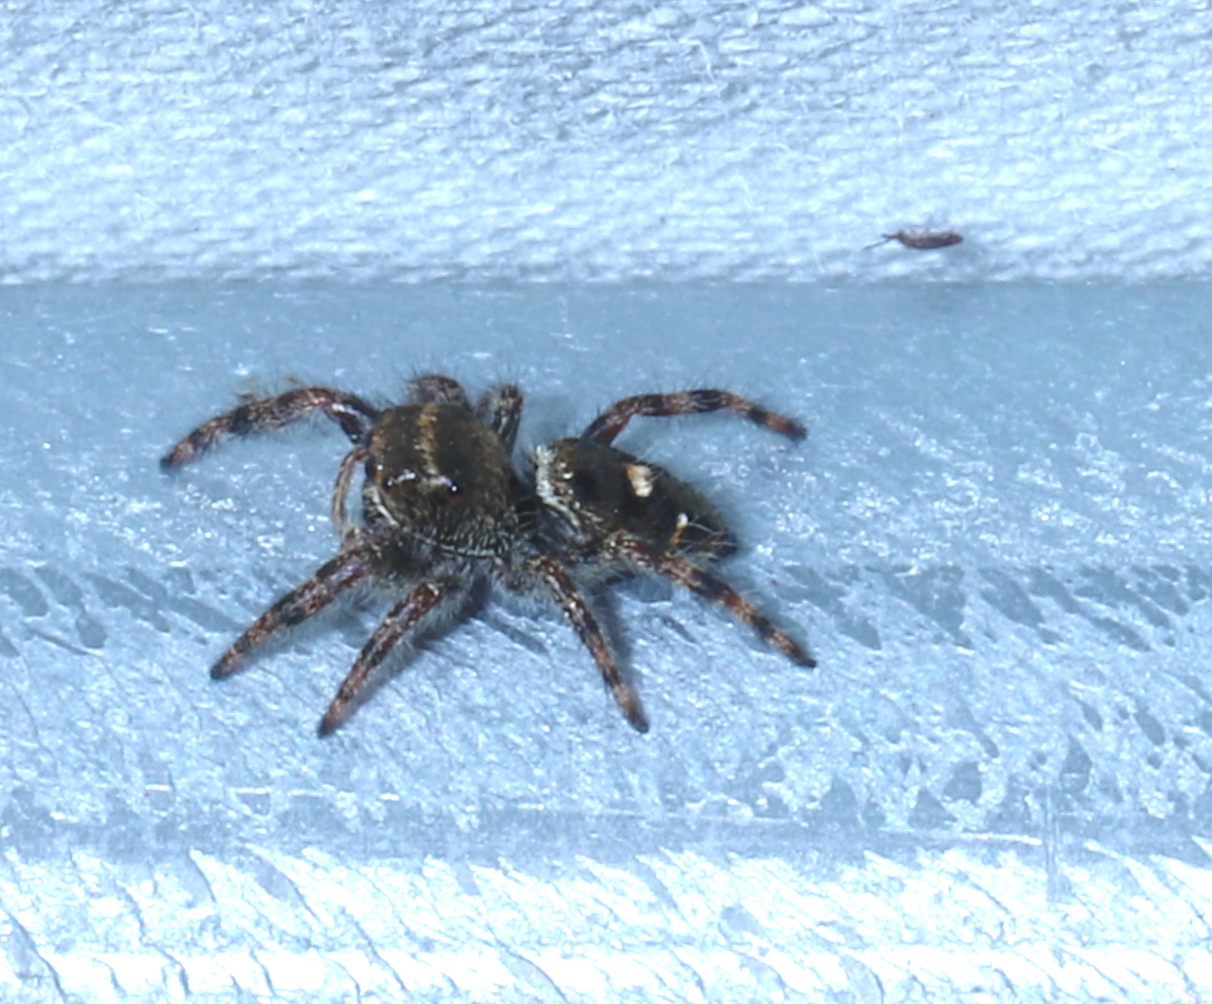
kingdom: Animalia
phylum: Arthropoda
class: Arachnida
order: Araneae
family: Salticidae
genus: Phidippus
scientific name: Phidippus audax
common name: Bold jumper
